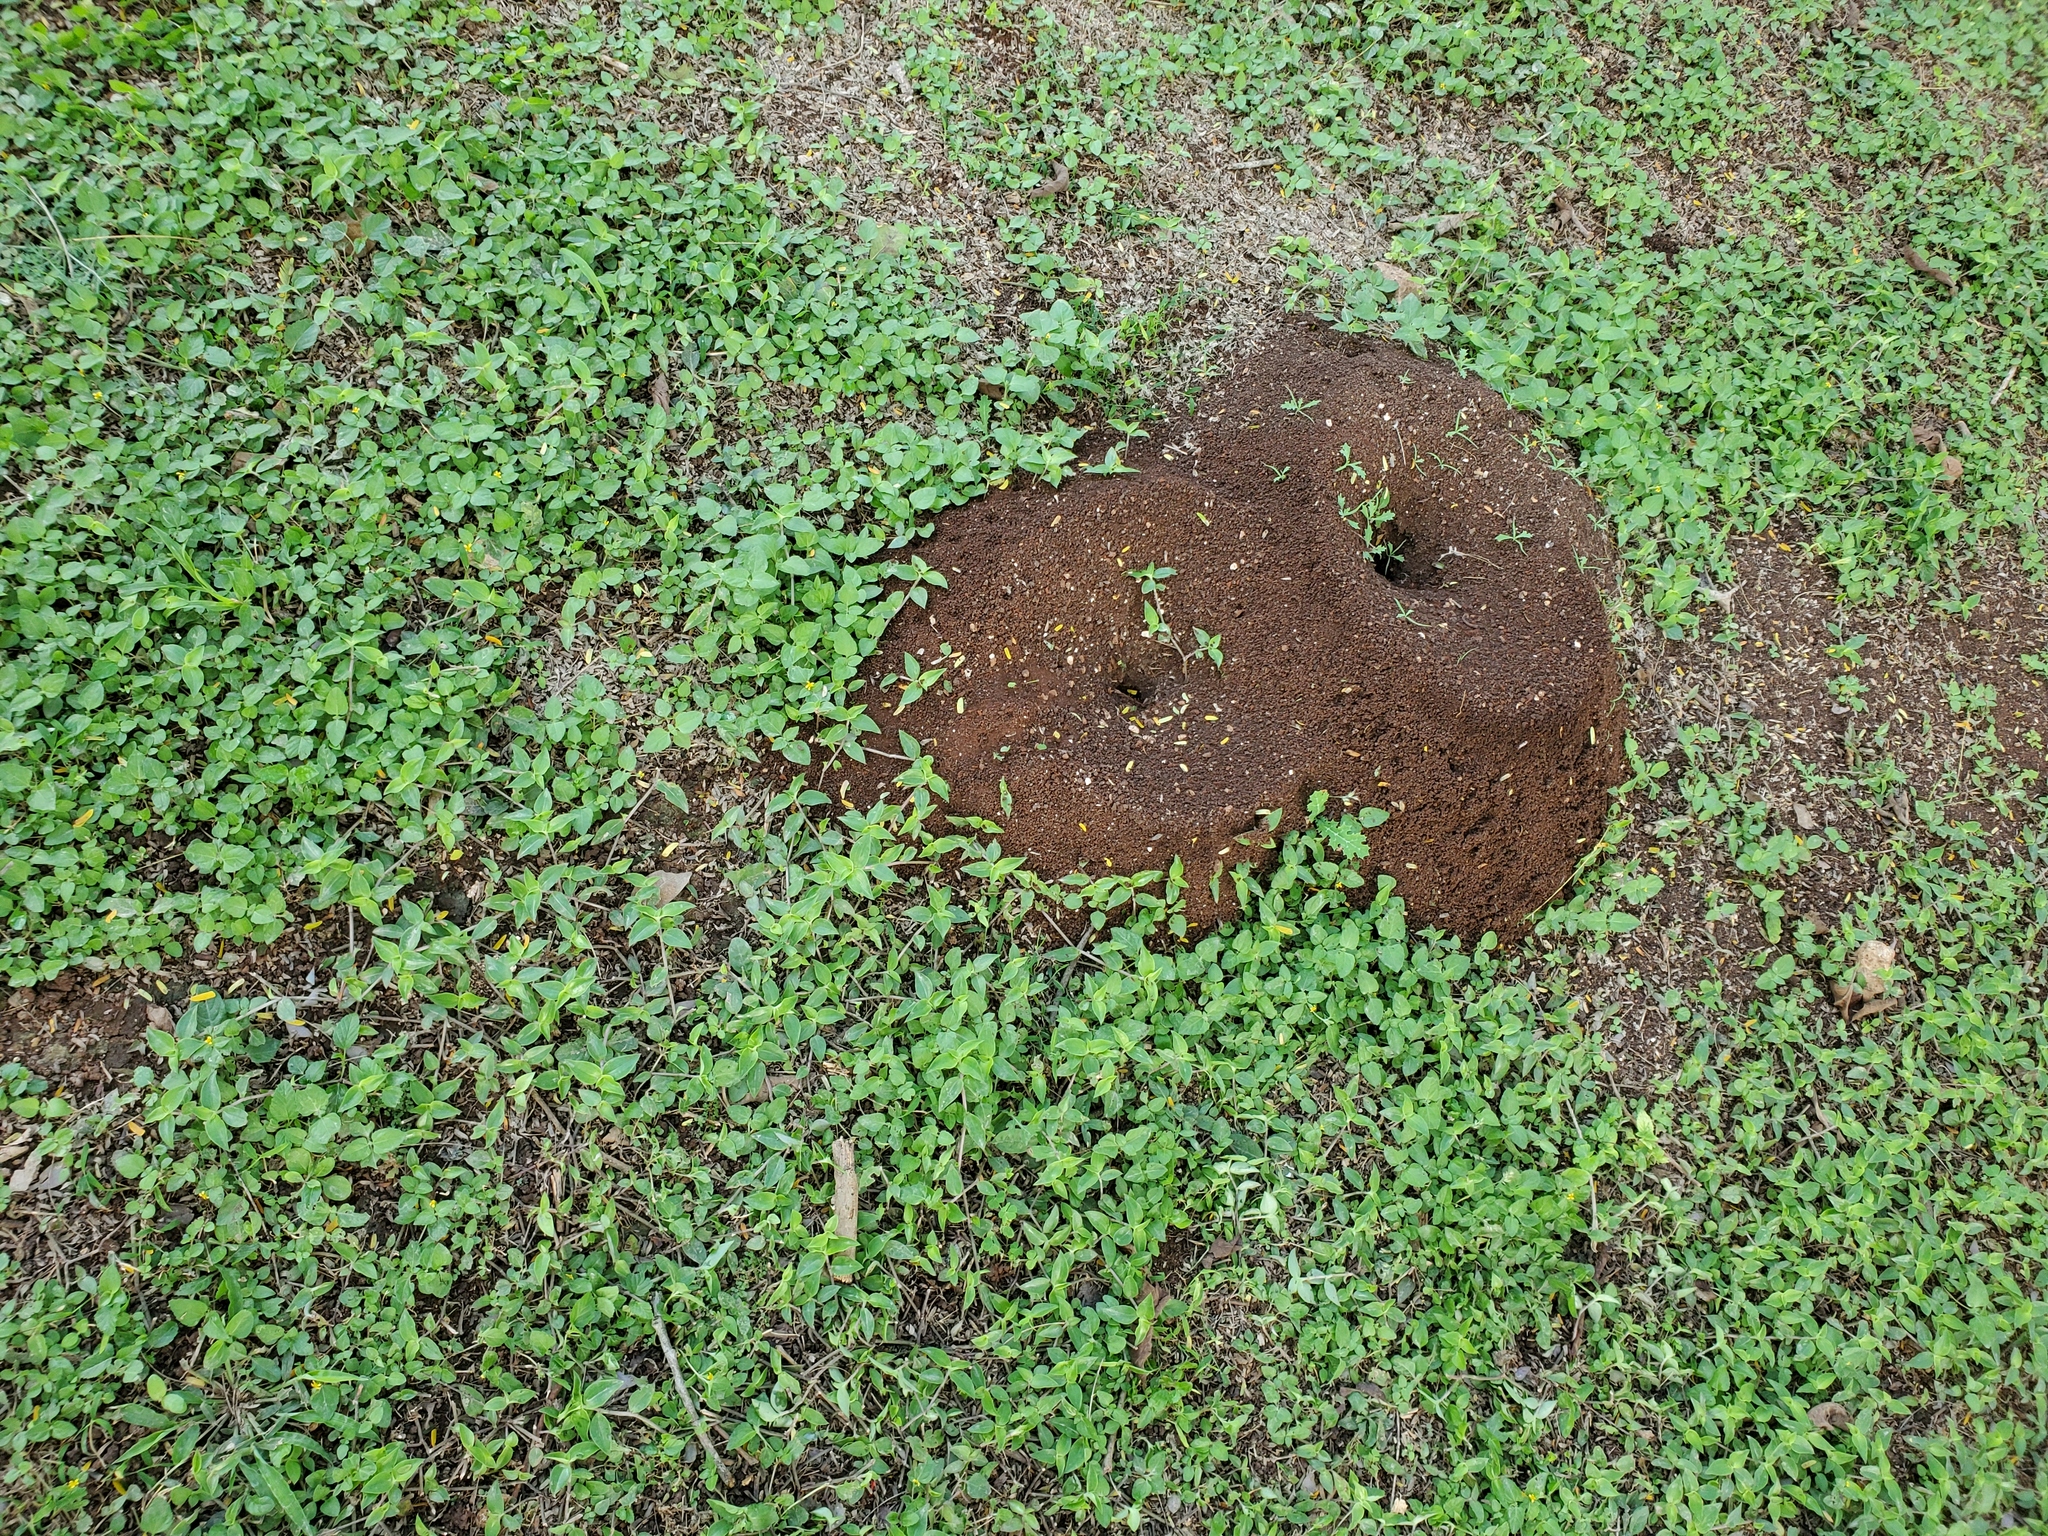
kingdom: Animalia
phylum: Arthropoda
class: Insecta
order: Hymenoptera
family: Formicidae
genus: Atta
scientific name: Atta cephalotes
